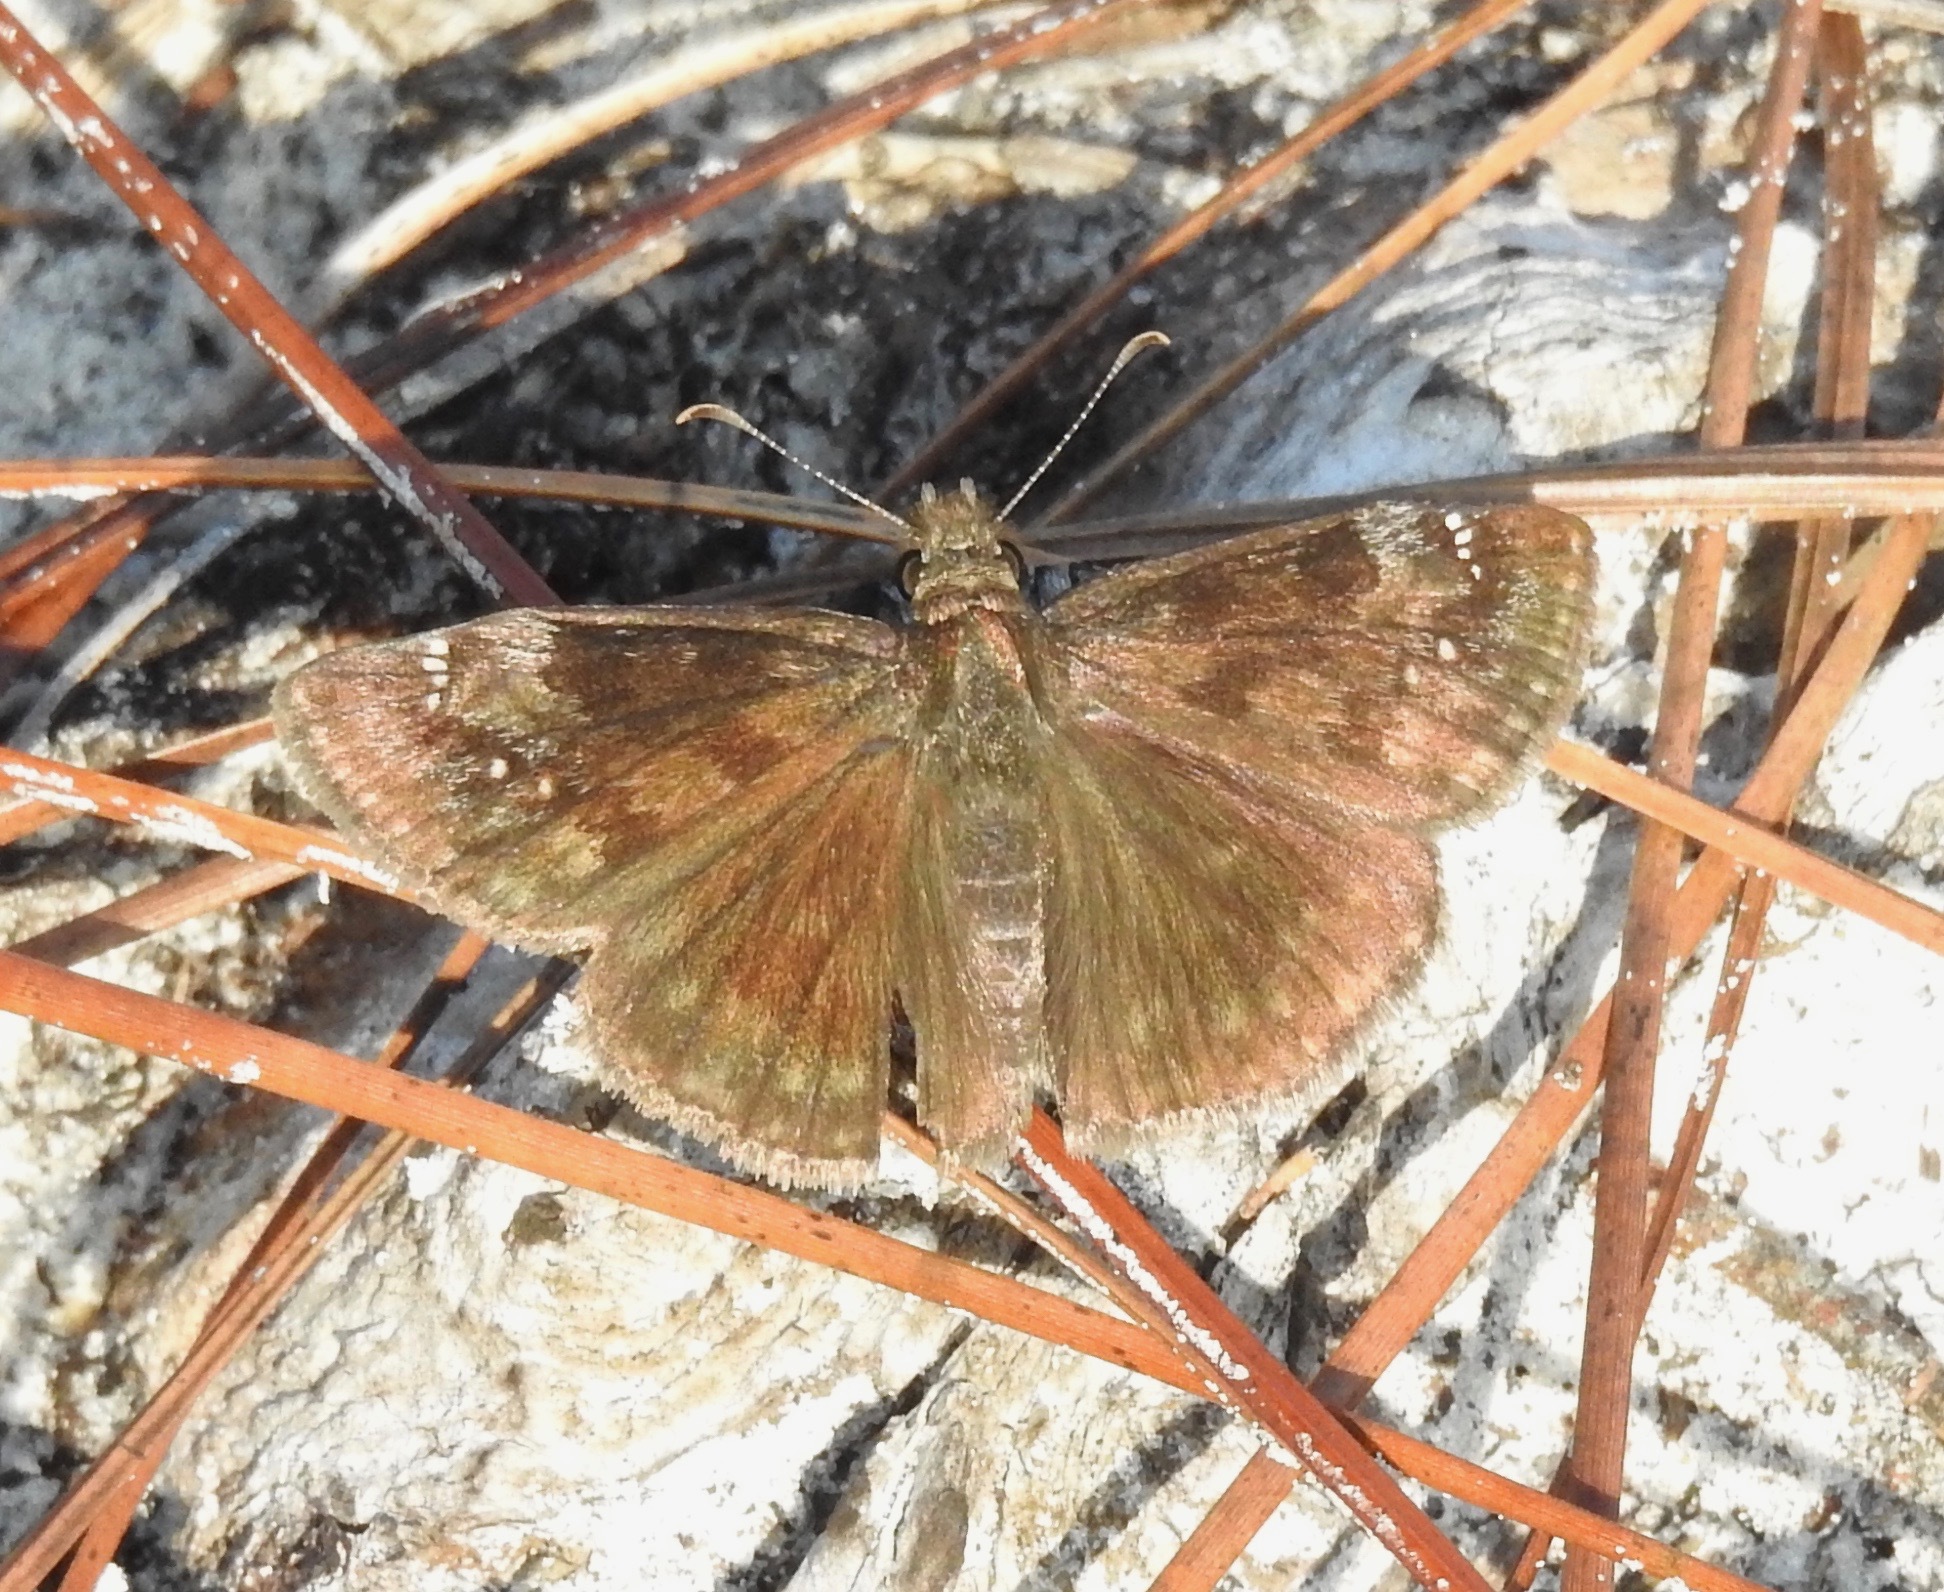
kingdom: Animalia
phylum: Arthropoda
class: Insecta
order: Lepidoptera
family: Hesperiidae
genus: Erynnis
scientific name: Erynnis baptisiae
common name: Wild indigo duskywing
